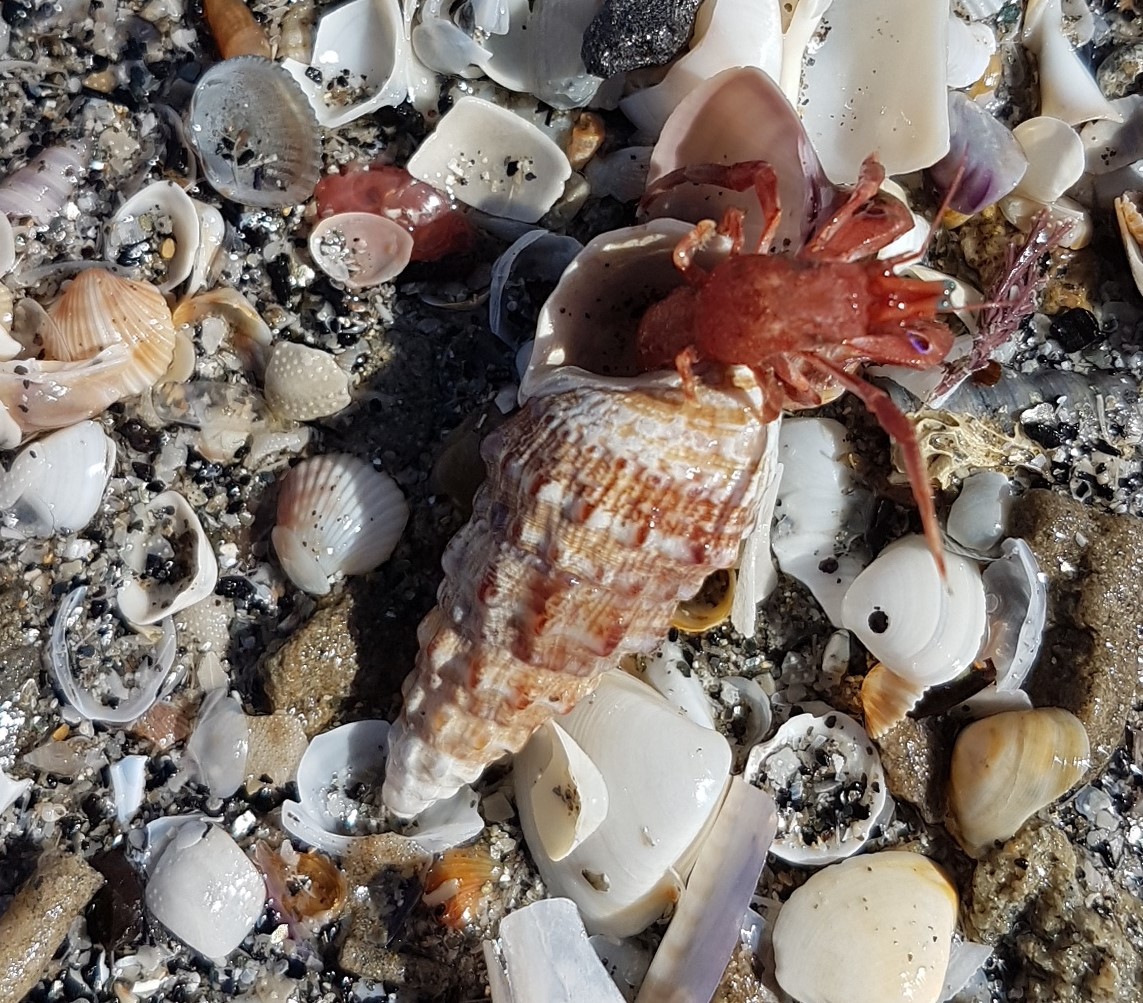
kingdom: Animalia
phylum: Arthropoda
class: Malacostraca
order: Decapoda
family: Diogenidae
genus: Paguristes
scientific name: Paguristes eremita
